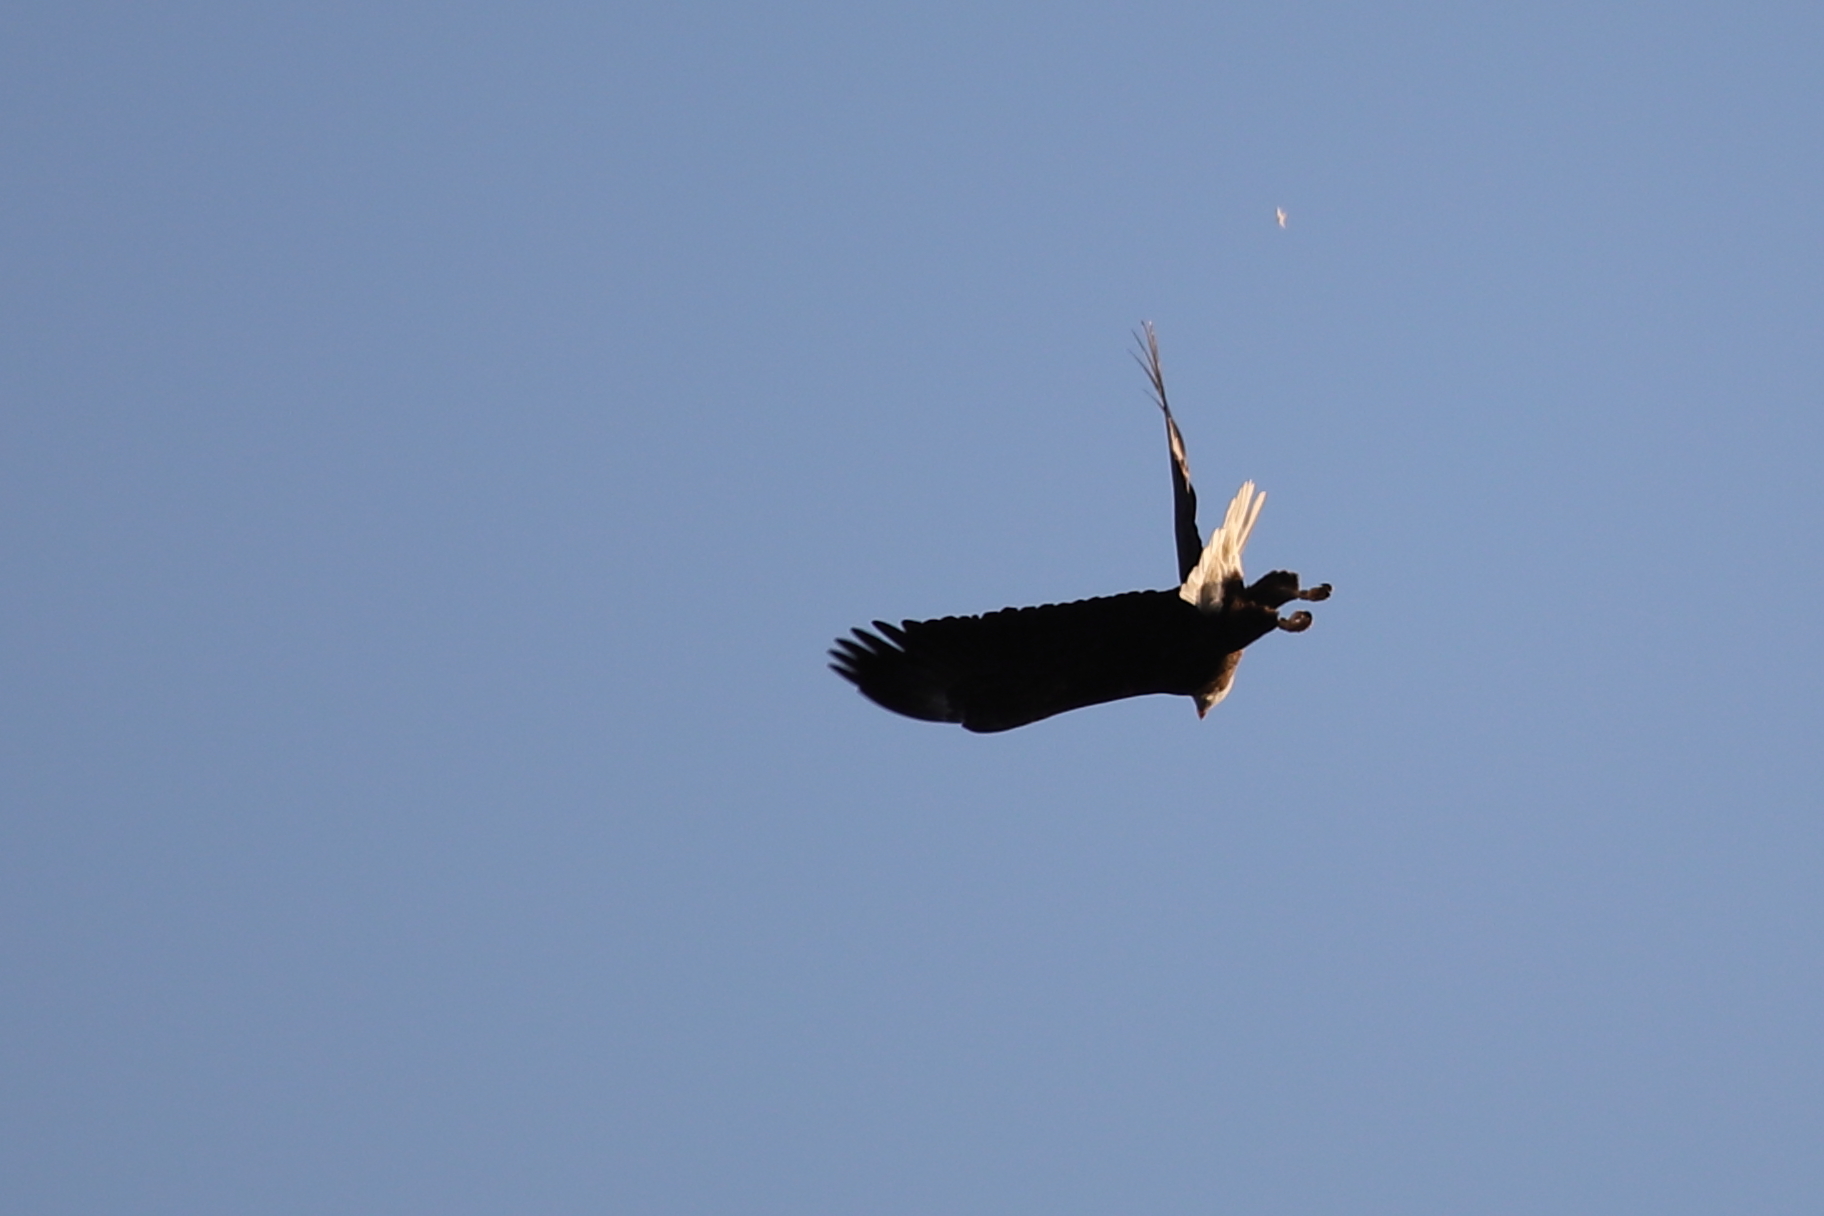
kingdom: Animalia
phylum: Chordata
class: Aves
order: Accipitriformes
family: Accipitridae
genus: Haliaeetus
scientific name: Haliaeetus leucocephalus
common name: Bald eagle
